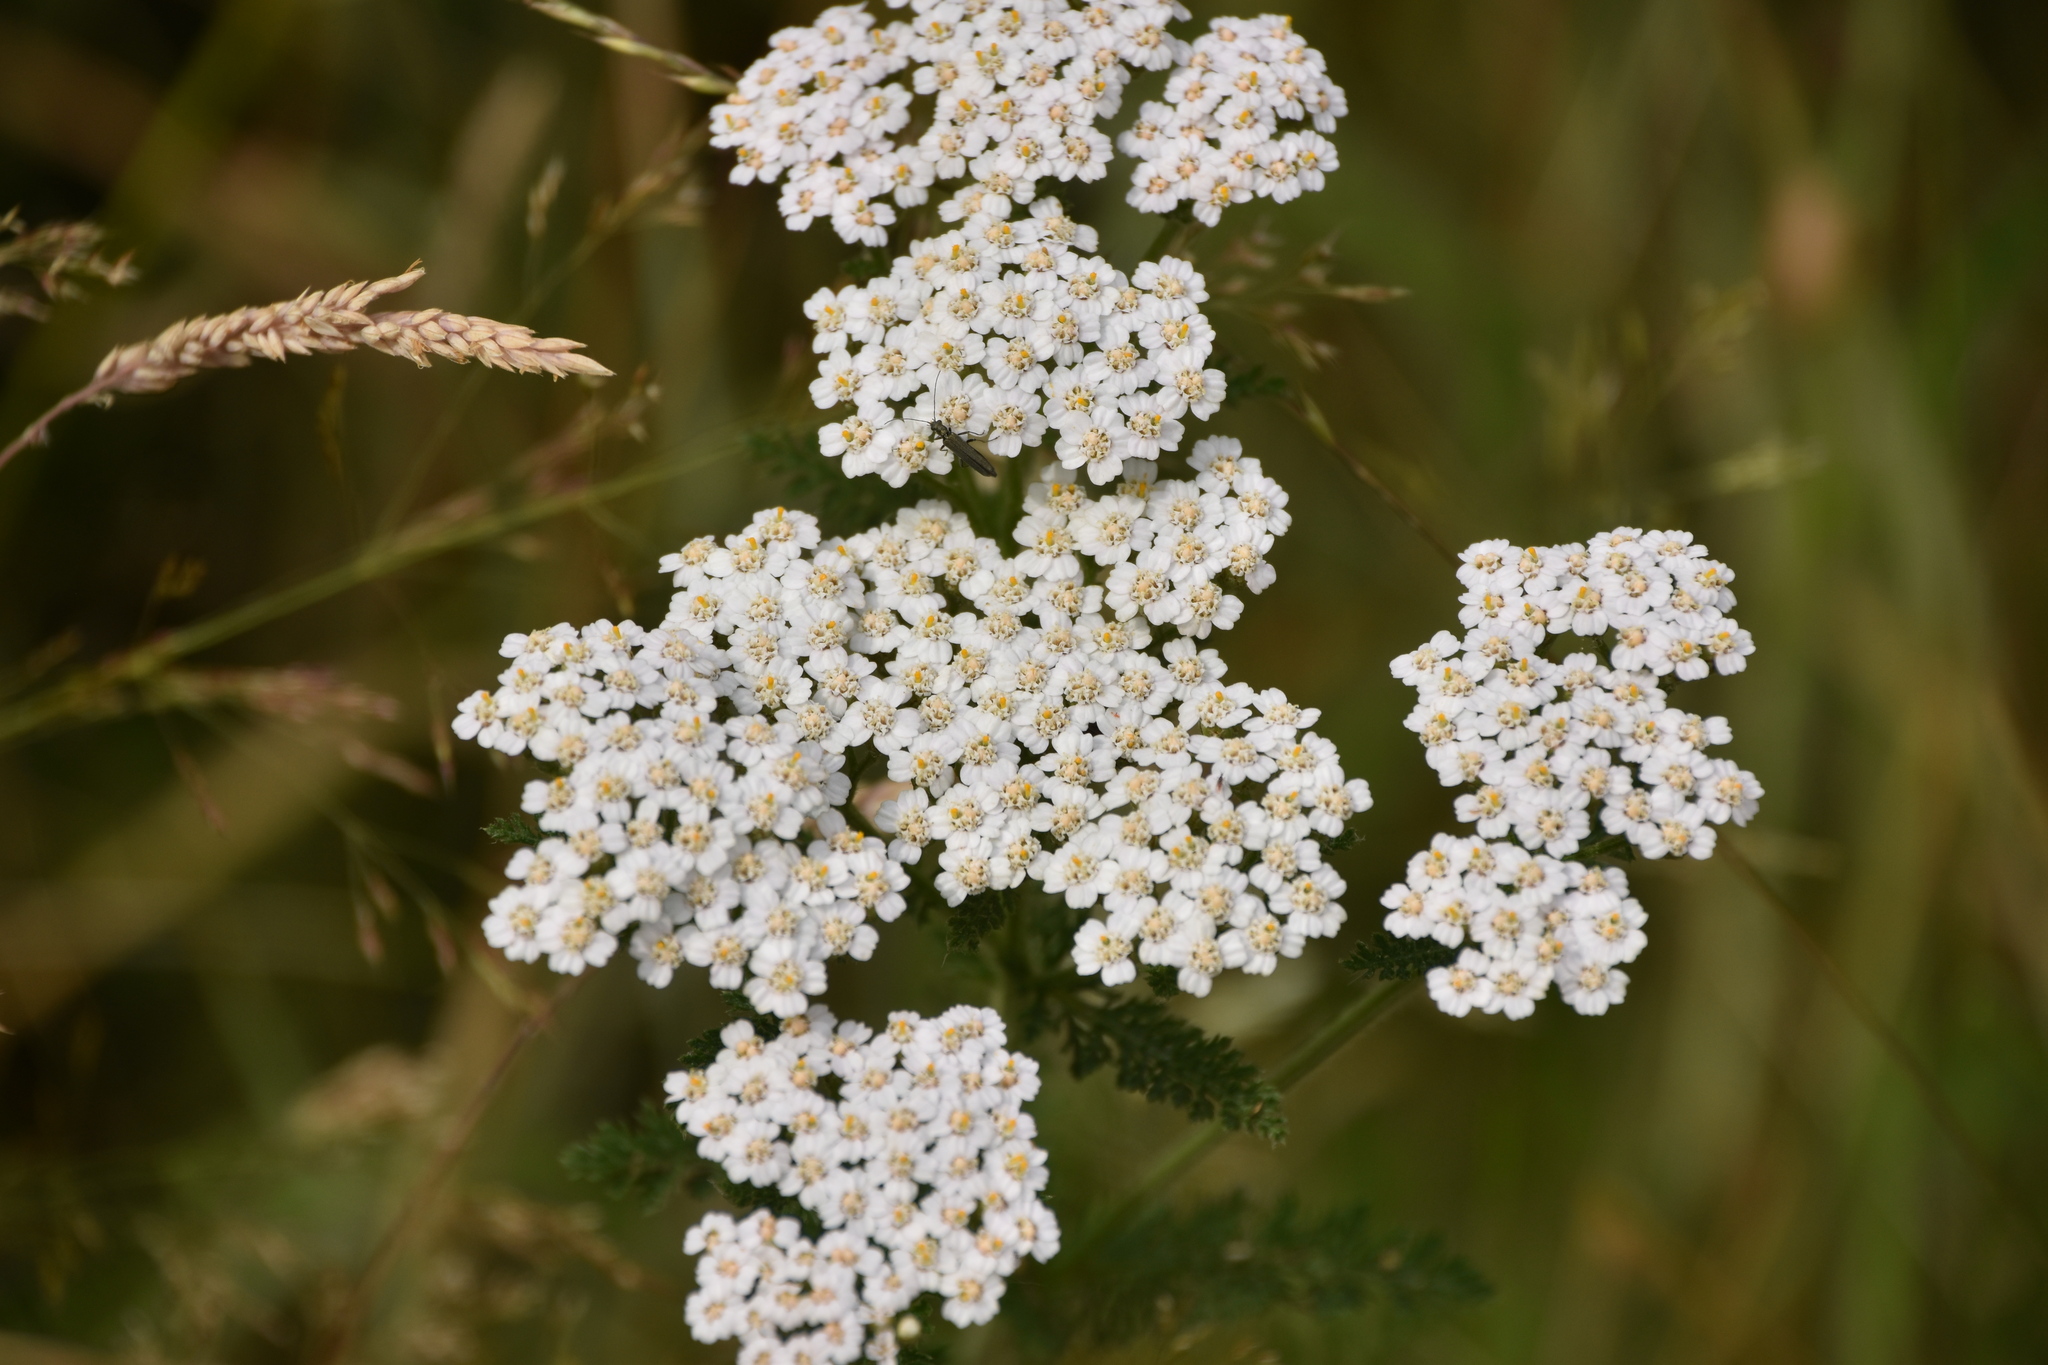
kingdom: Plantae
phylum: Tracheophyta
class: Magnoliopsida
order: Asterales
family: Asteraceae
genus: Achillea
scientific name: Achillea millefolium
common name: Yarrow
